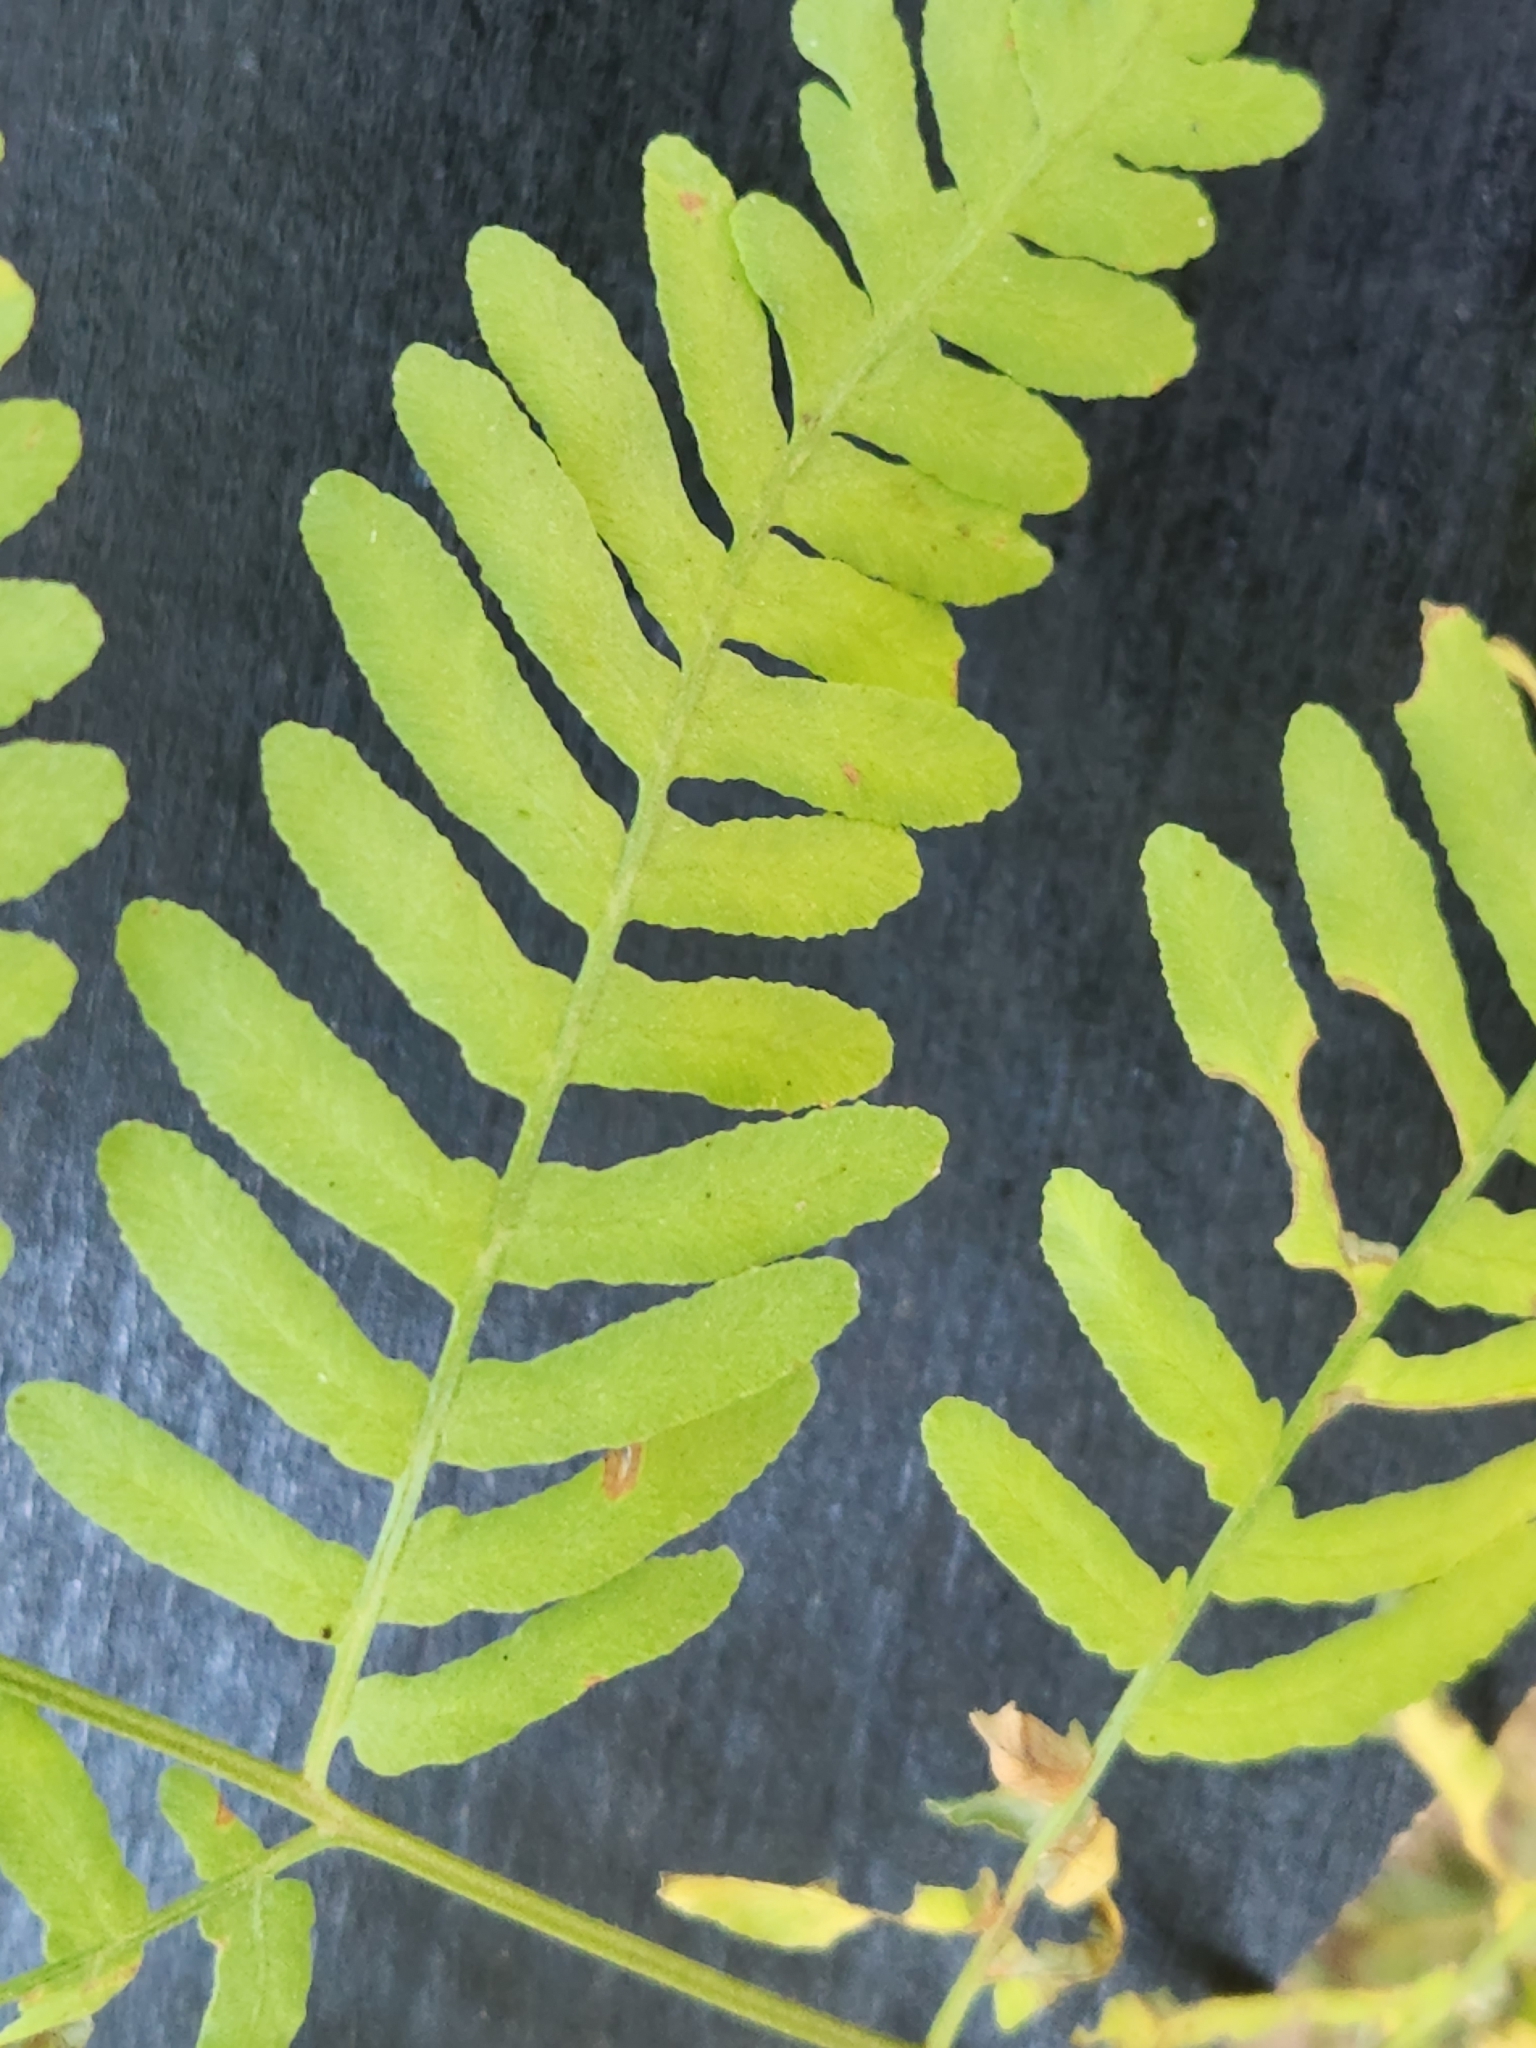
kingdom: Plantae
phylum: Tracheophyta
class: Polypodiopsida
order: Polypodiales
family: Dennstaedtiaceae
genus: Pteridium
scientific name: Pteridium aquilinum
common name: Bracken
